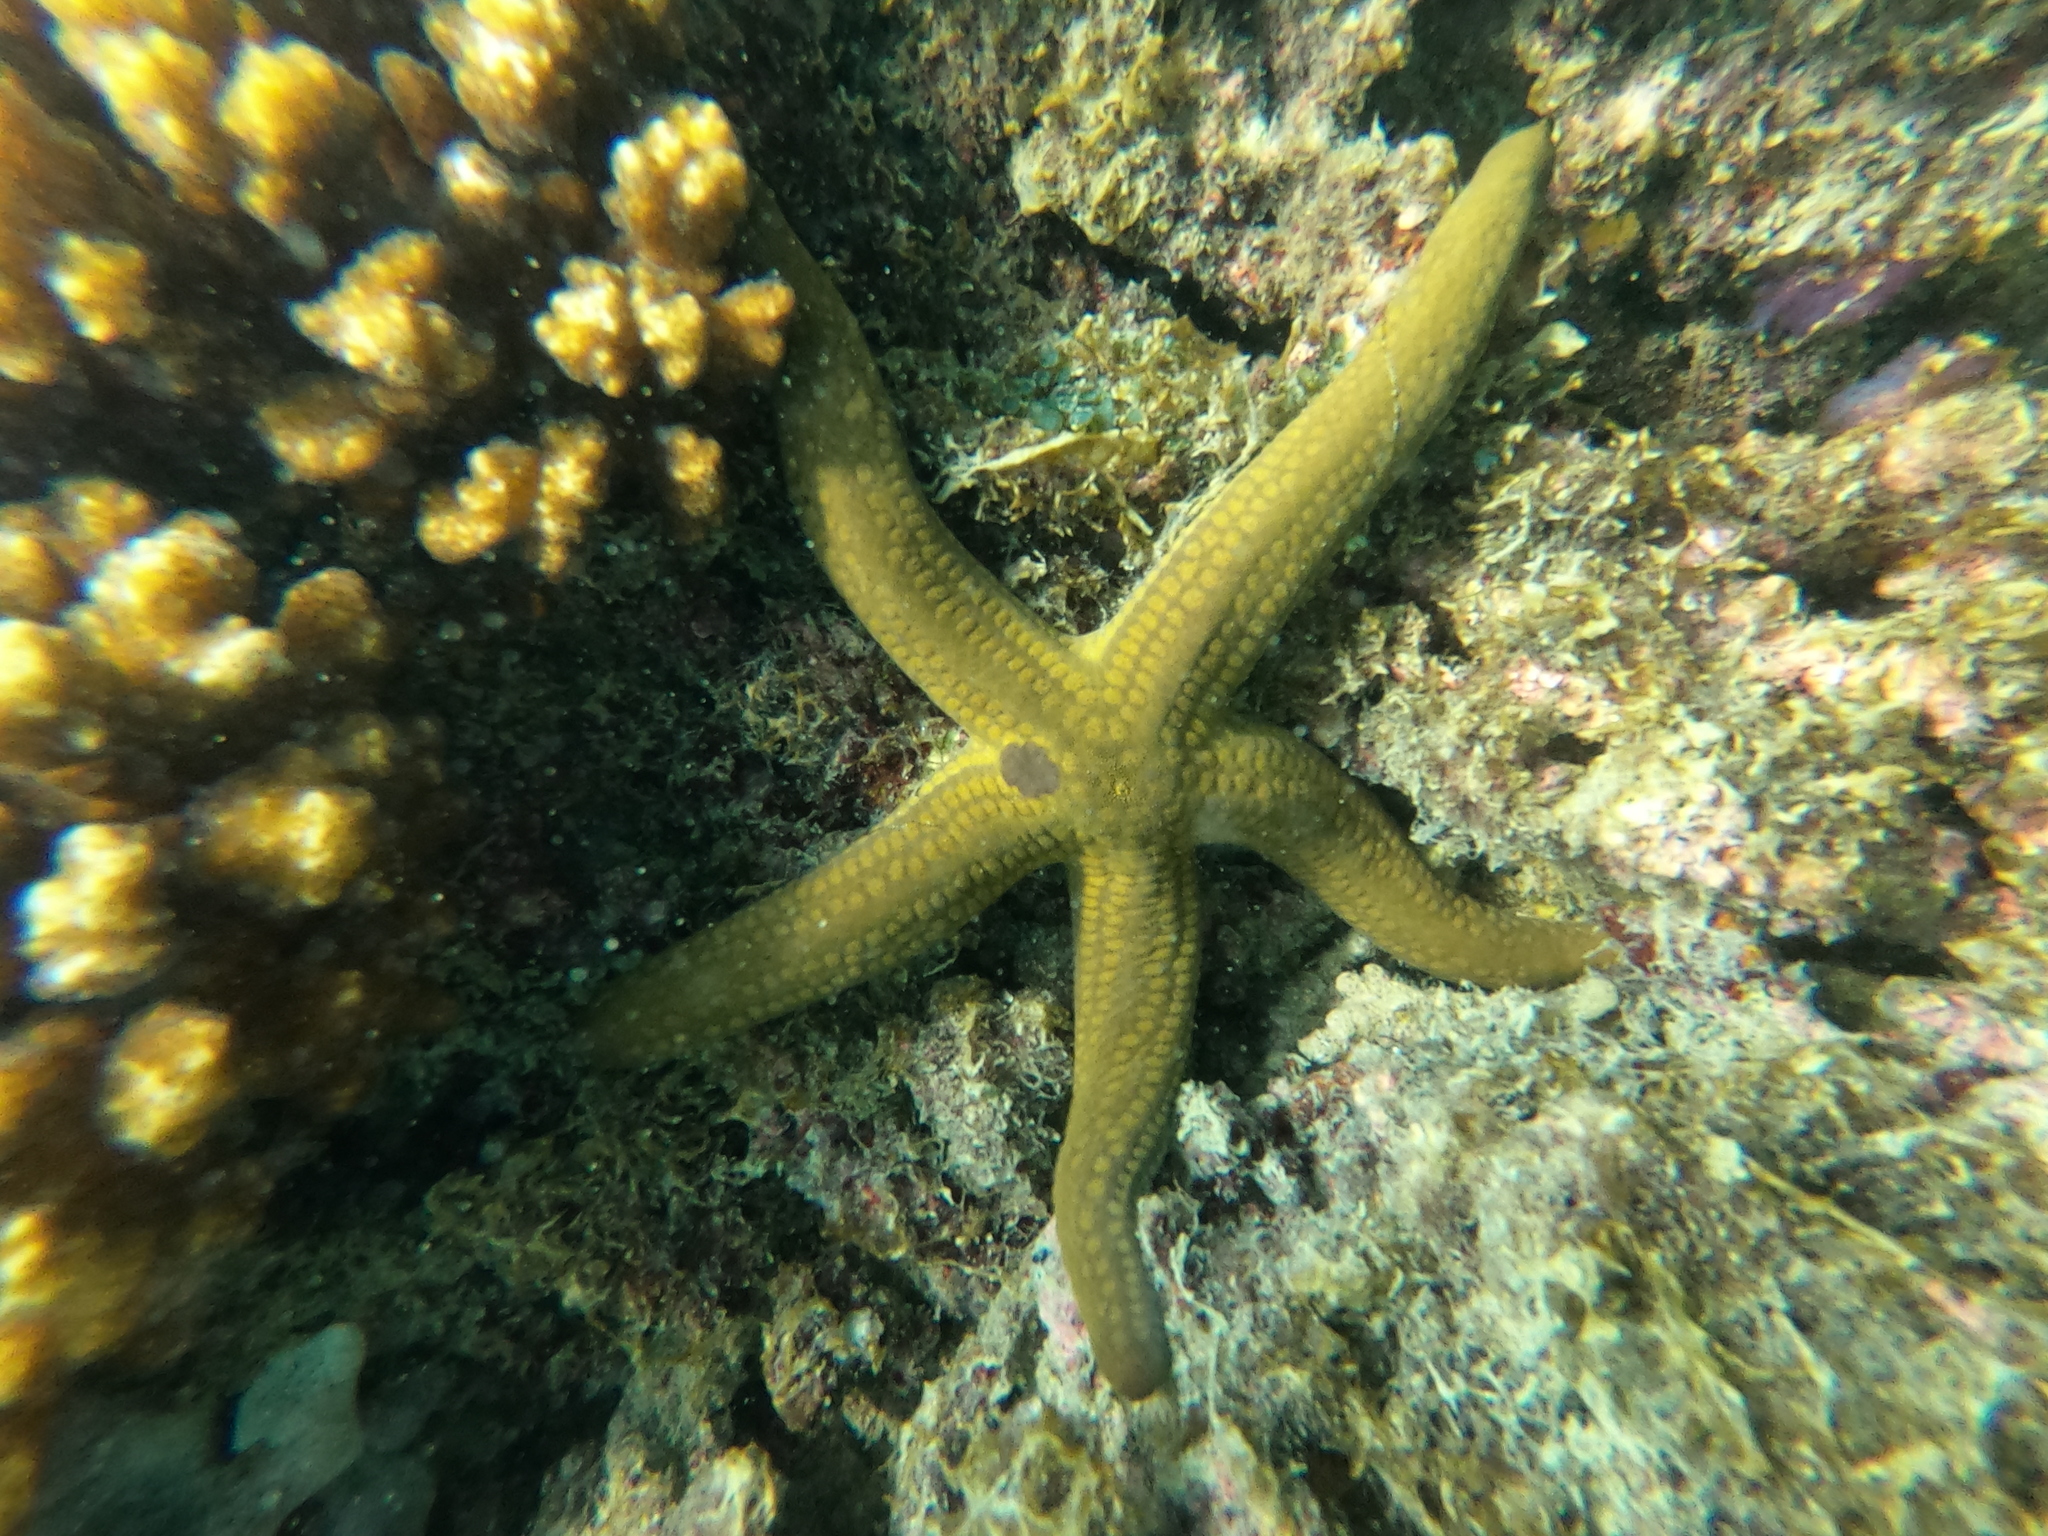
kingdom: Animalia
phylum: Echinodermata
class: Asteroidea
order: Valvatida
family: Ophidiasteridae
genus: Pharia
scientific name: Pharia pyramidata
